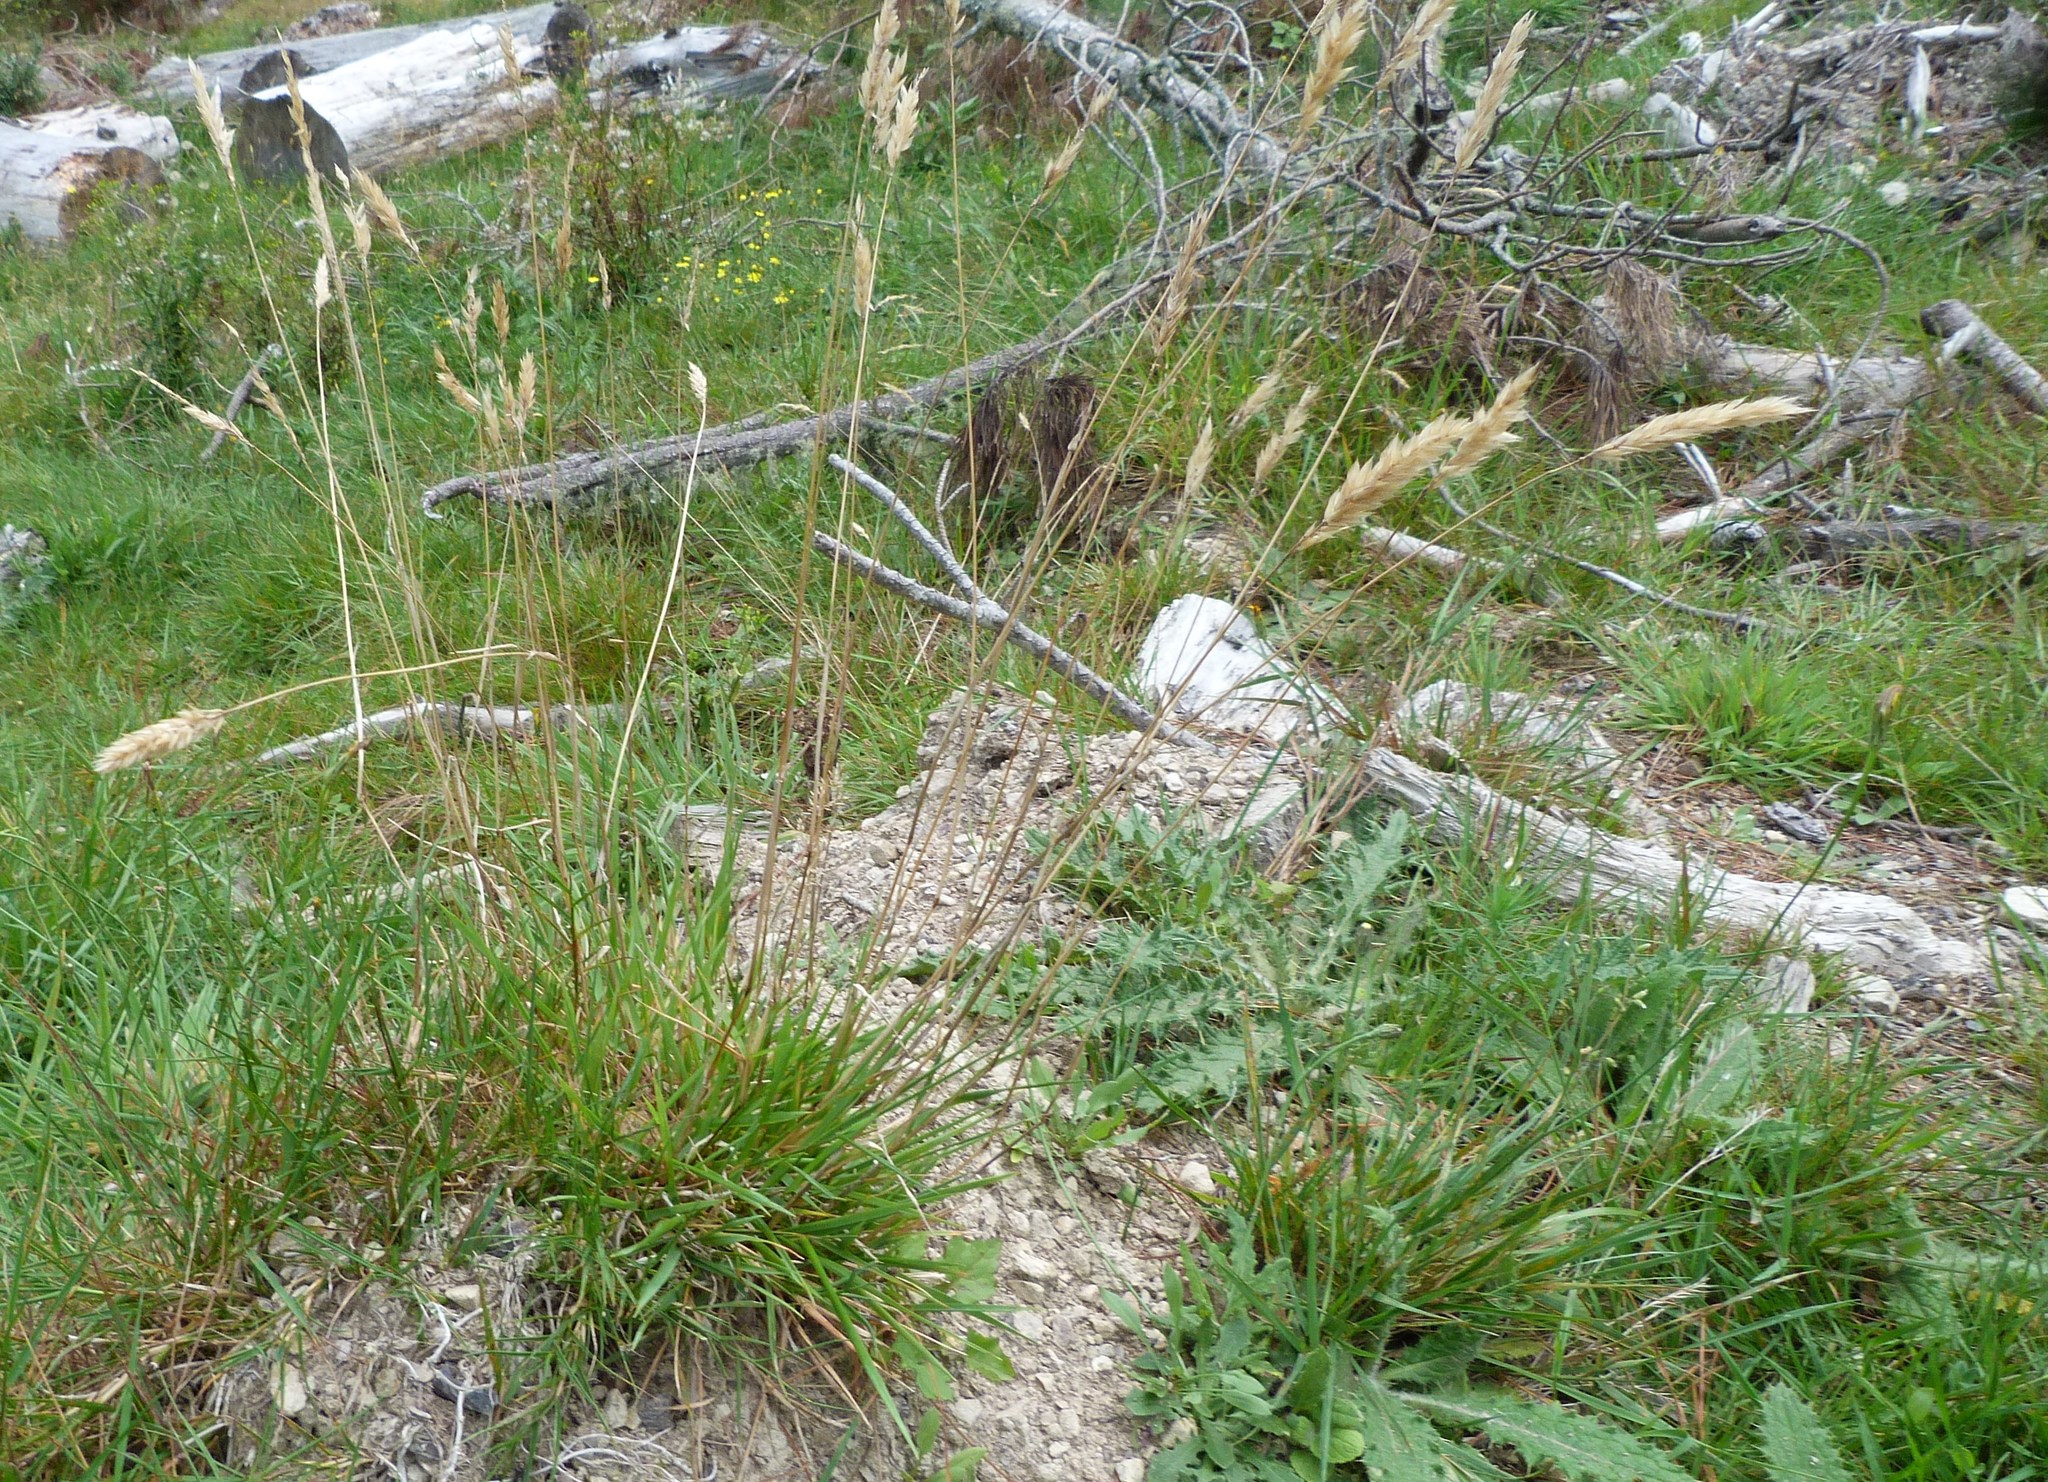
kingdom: Plantae
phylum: Tracheophyta
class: Liliopsida
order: Poales
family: Poaceae
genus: Anthoxanthum
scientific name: Anthoxanthum odoratum
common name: Sweet vernalgrass
